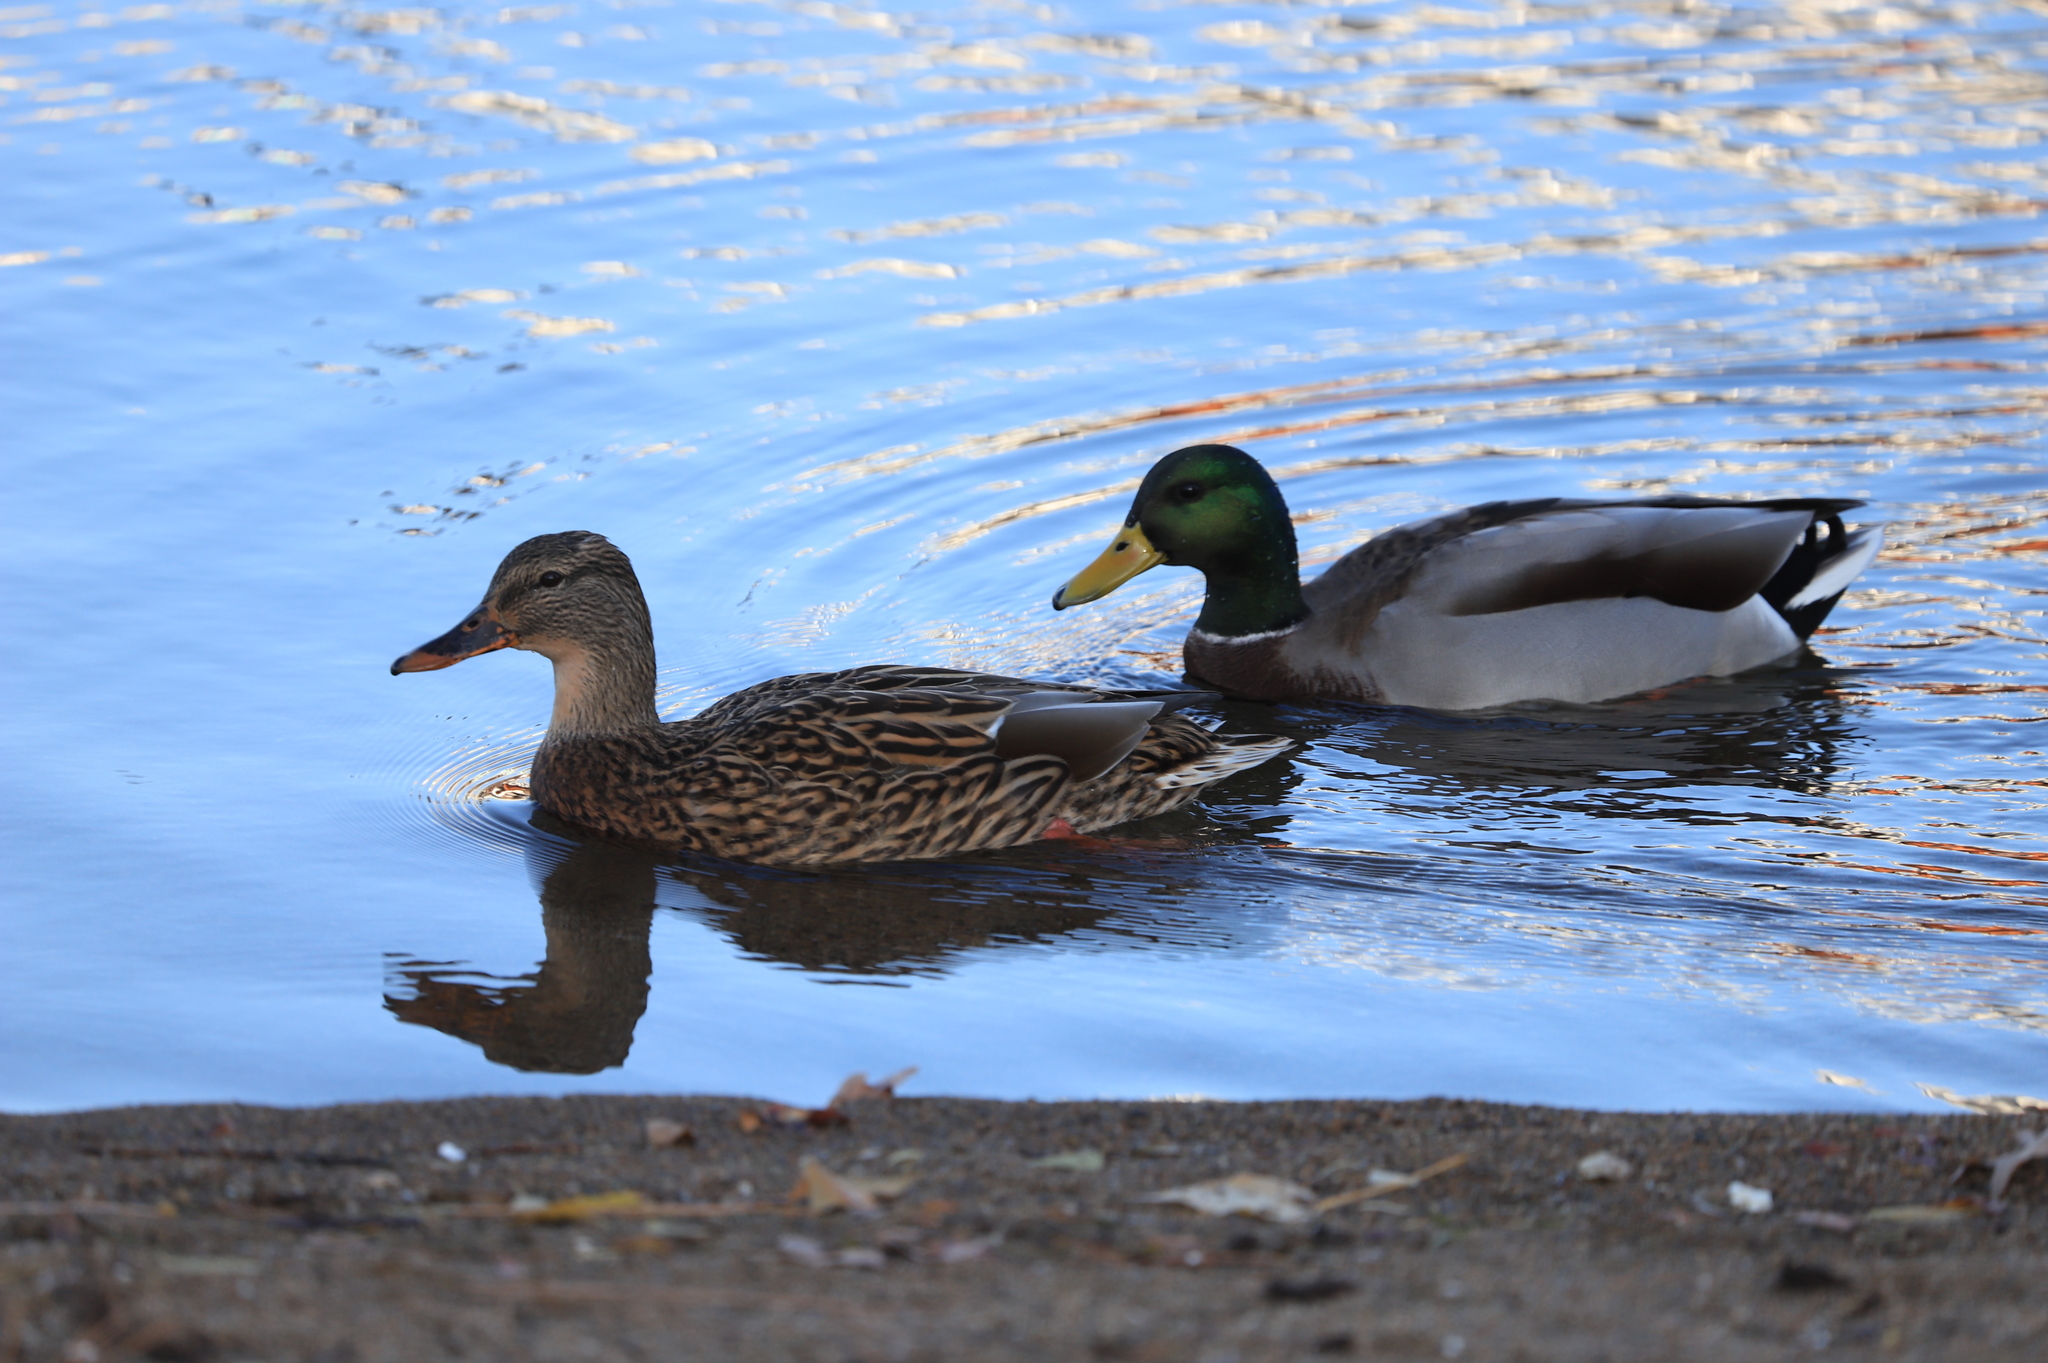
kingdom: Animalia
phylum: Chordata
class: Aves
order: Anseriformes
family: Anatidae
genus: Anas
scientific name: Anas platyrhynchos
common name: Mallard
